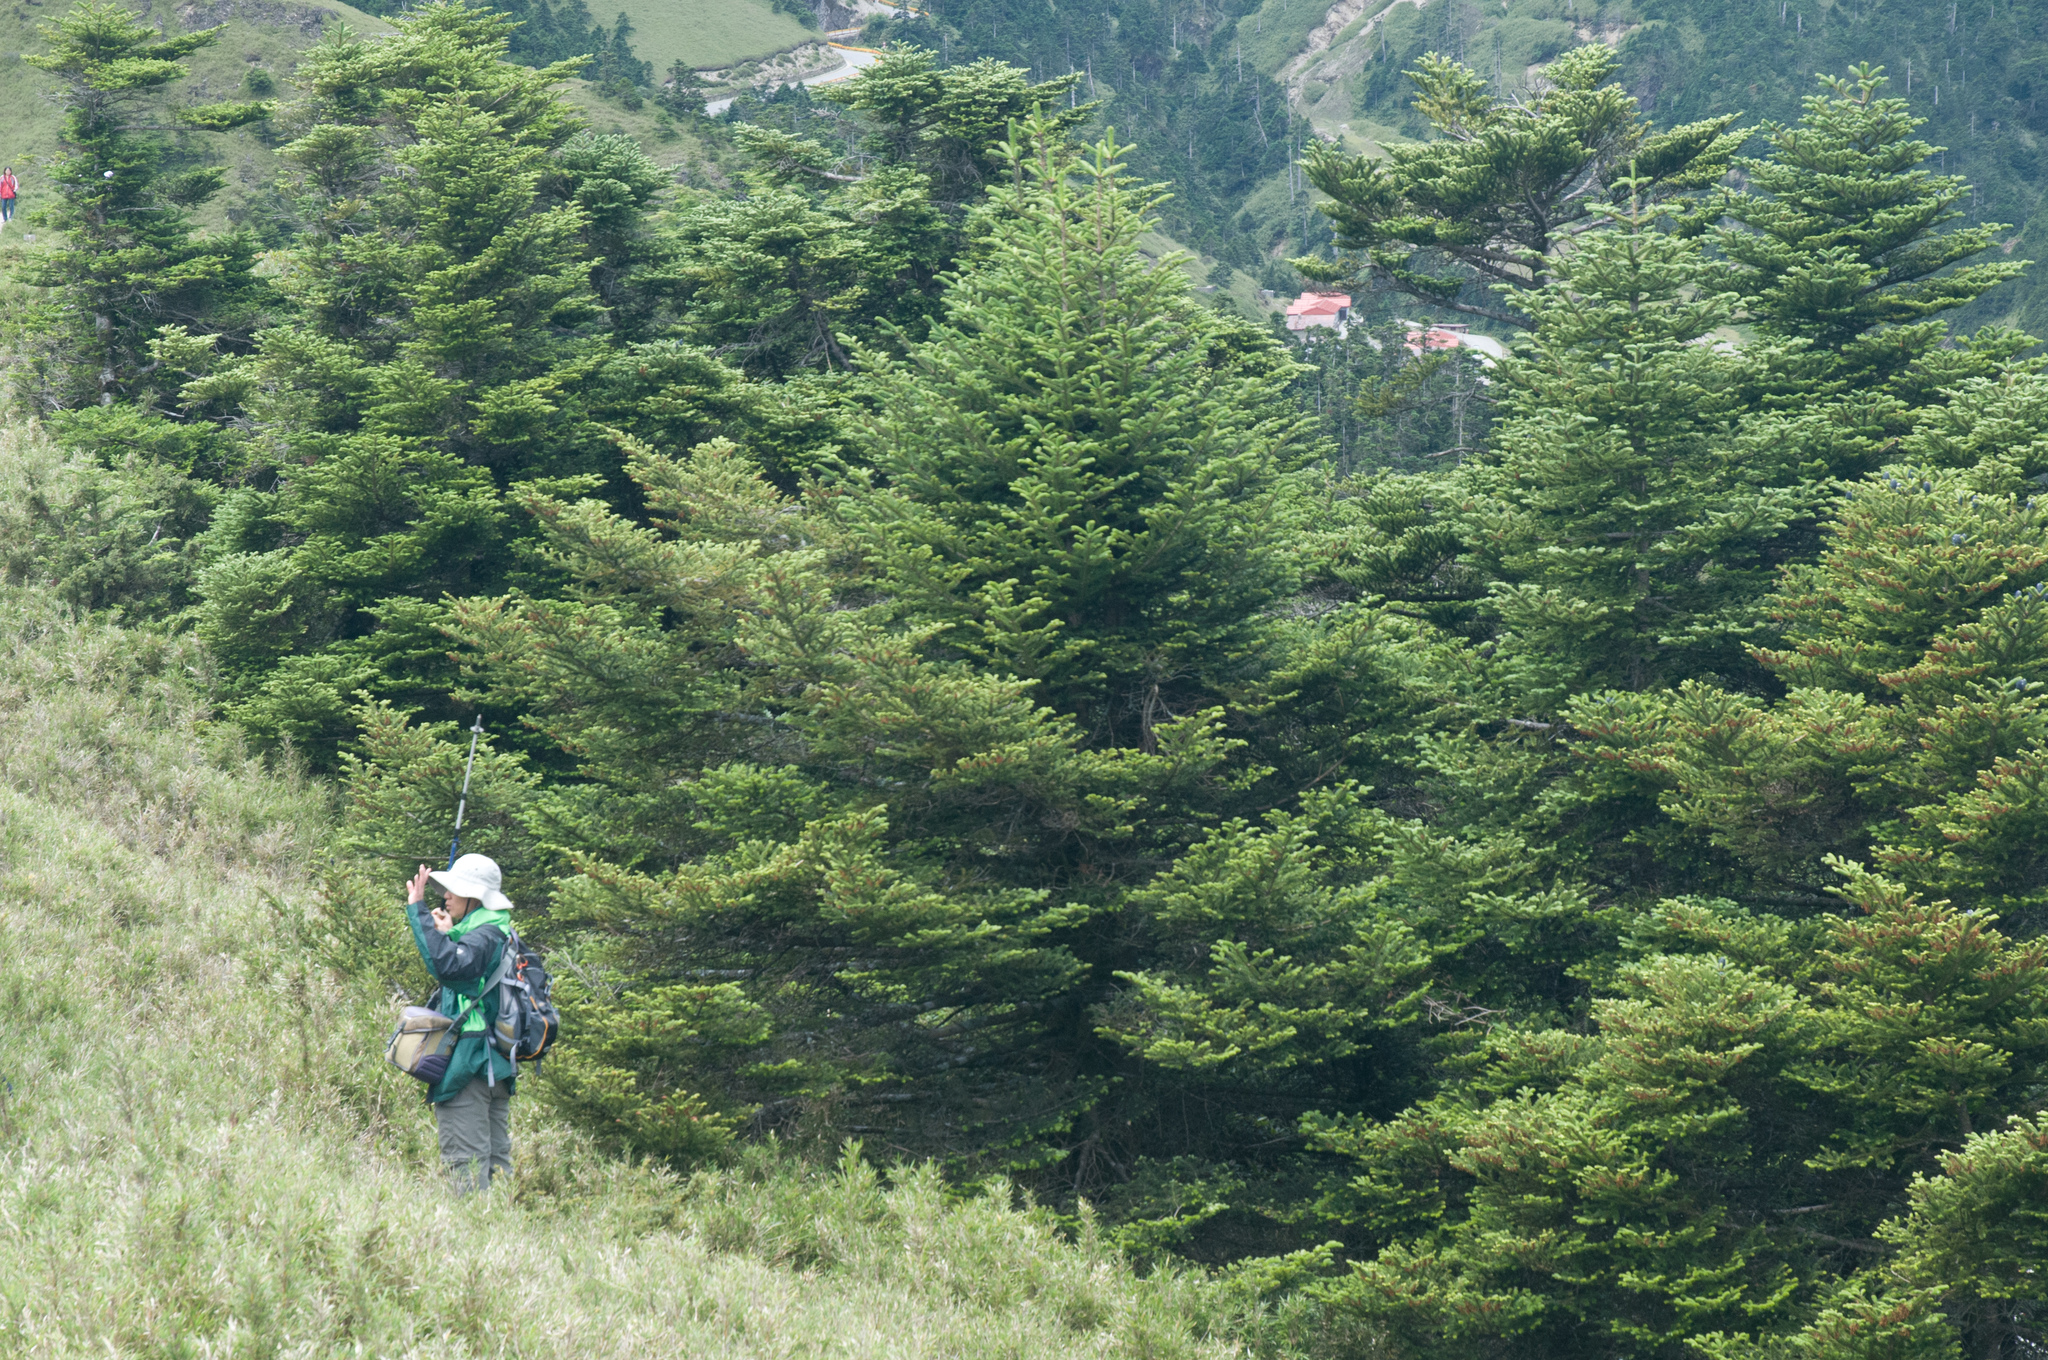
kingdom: Plantae
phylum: Tracheophyta
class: Pinopsida
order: Pinales
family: Pinaceae
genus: Abies
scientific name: Abies kawakamii
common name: Taiwan fir
